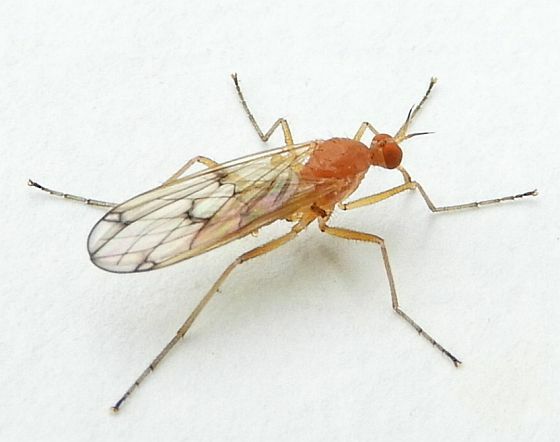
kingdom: Animalia
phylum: Arthropoda
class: Insecta
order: Diptera
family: Empididae
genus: Empis
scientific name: Empis poeciloptera
